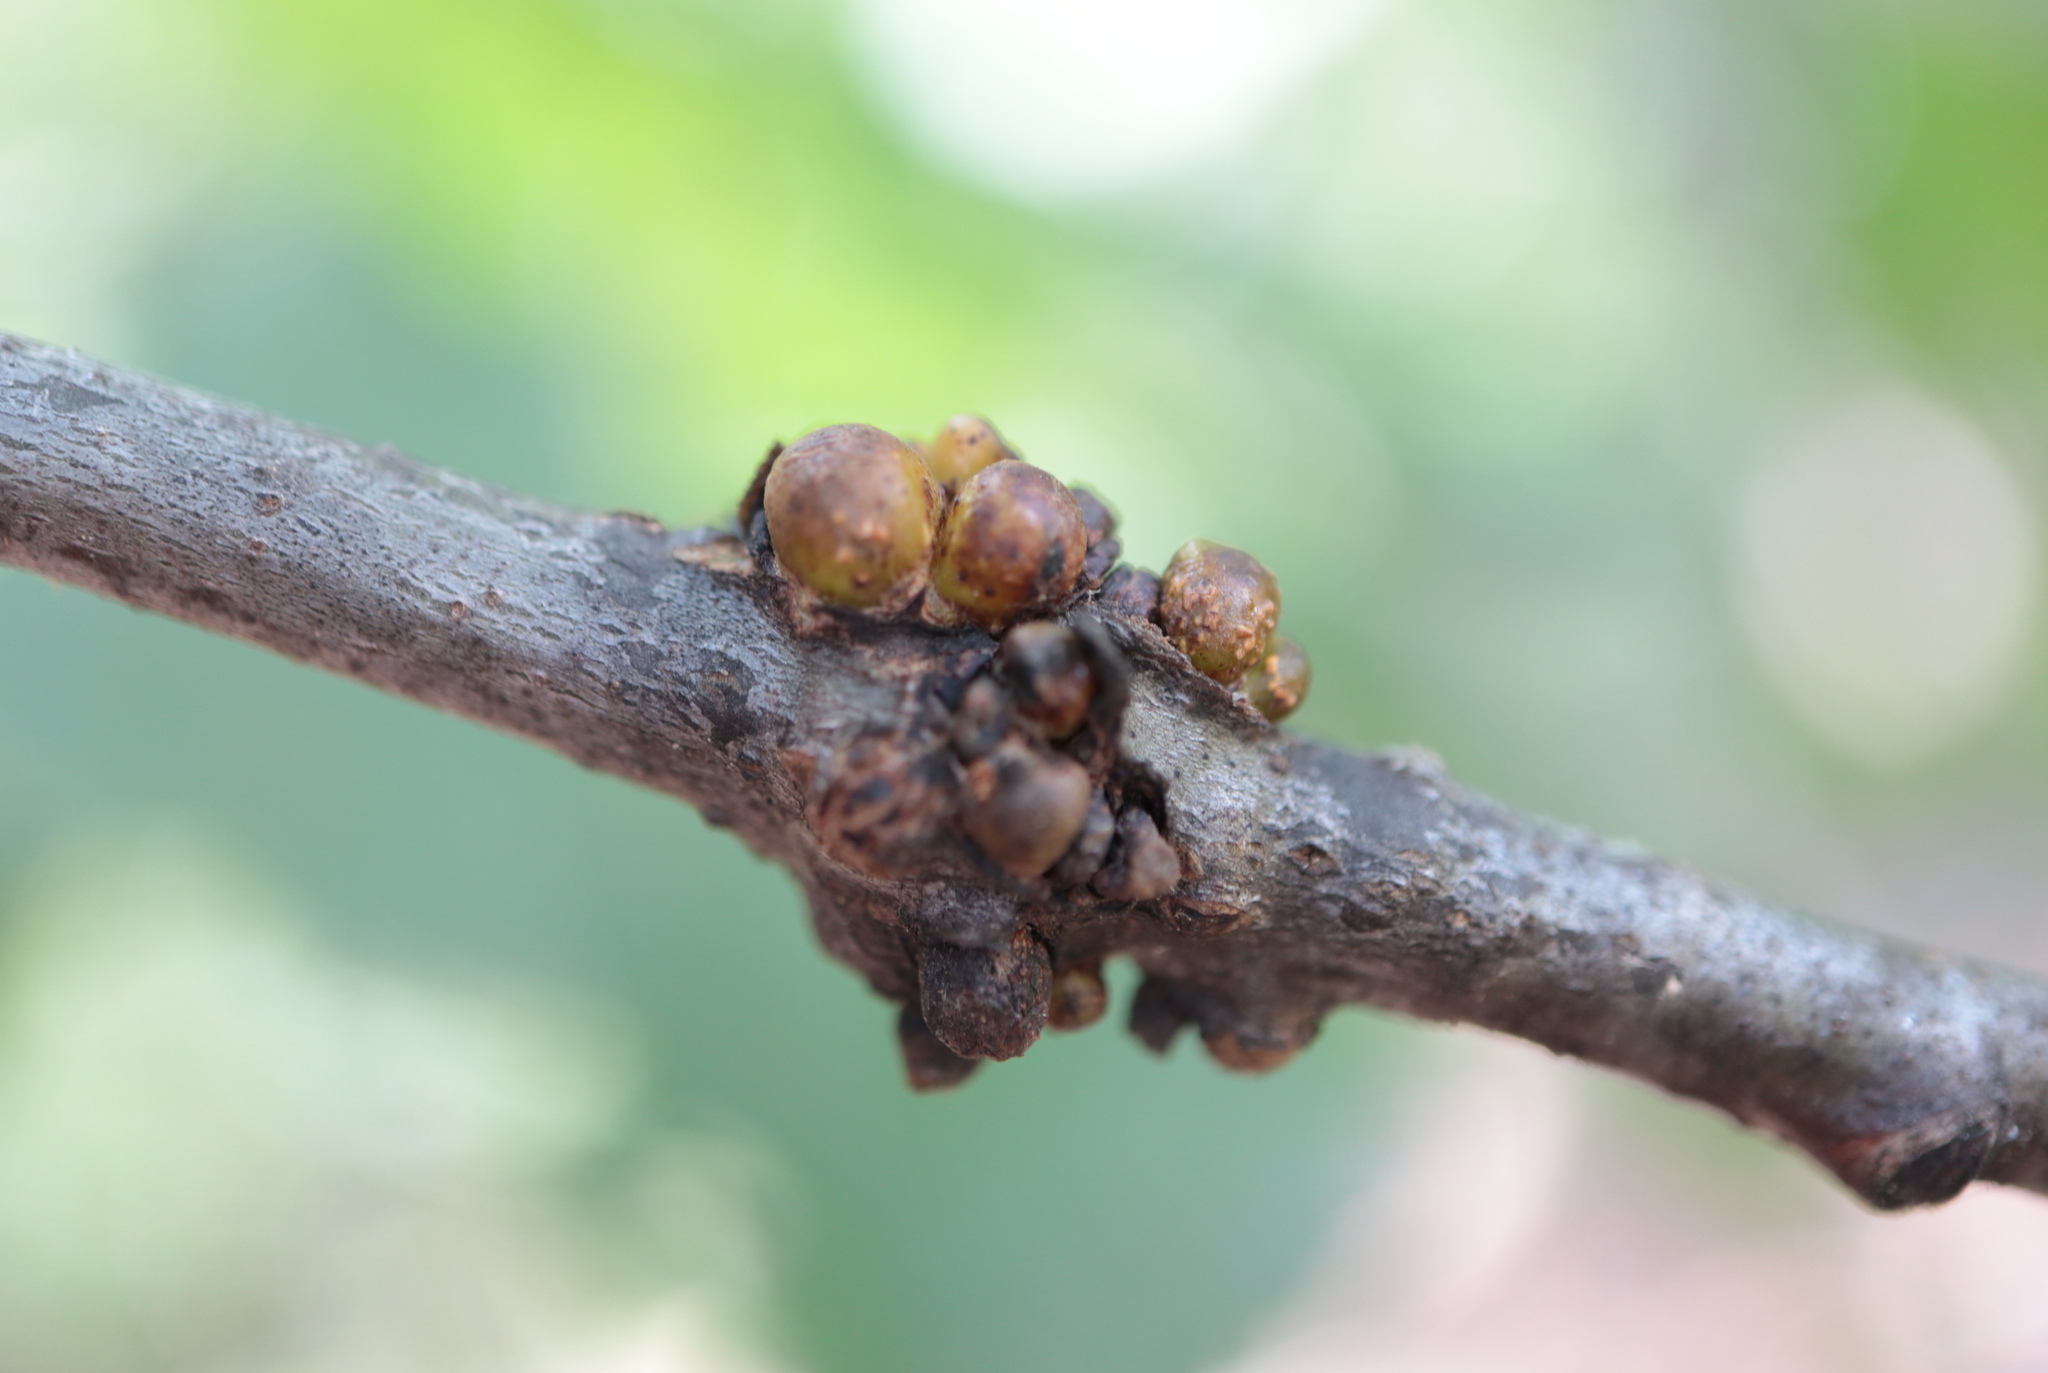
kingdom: Animalia
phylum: Arthropoda
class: Insecta
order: Hymenoptera
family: Cynipidae
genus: Callirhytis
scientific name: Callirhytis
